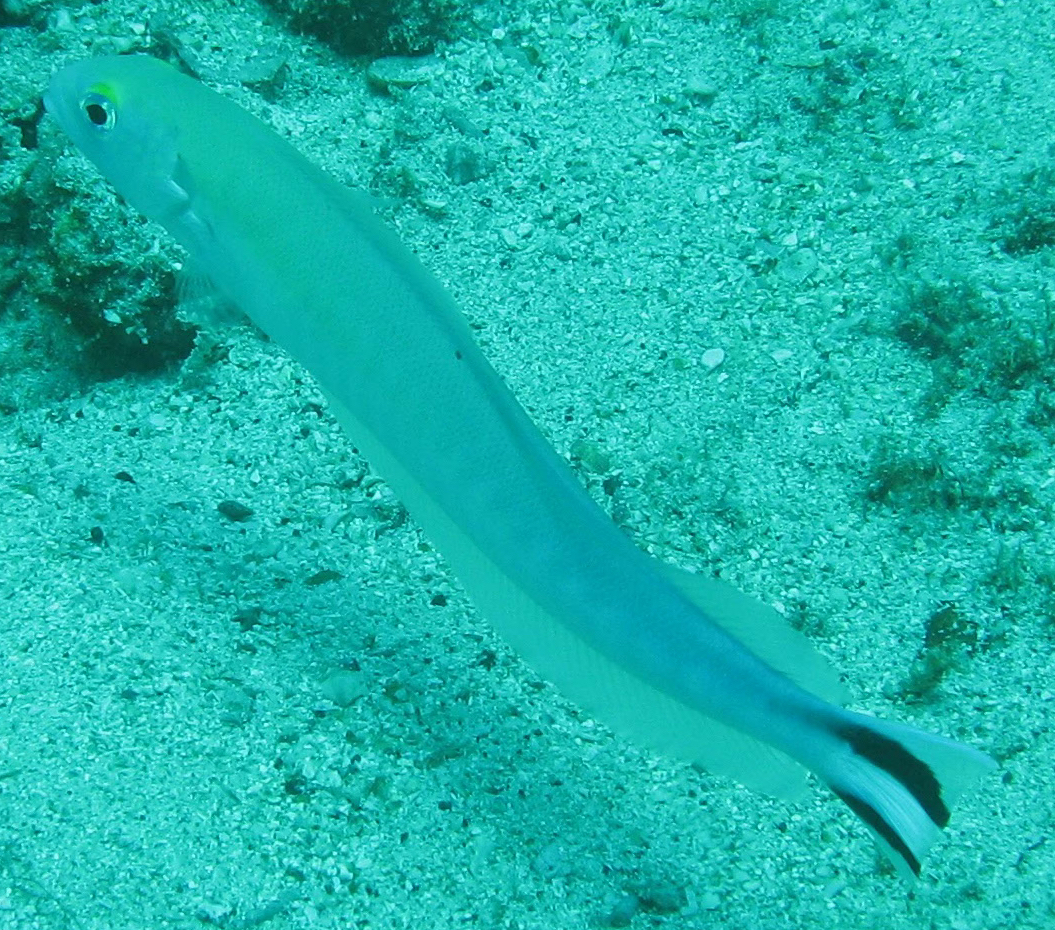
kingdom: Animalia
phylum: Chordata
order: Perciformes
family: Malacanthidae
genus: Malacanthus
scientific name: Malacanthus brevirostris
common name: Flagtail blanquillo
